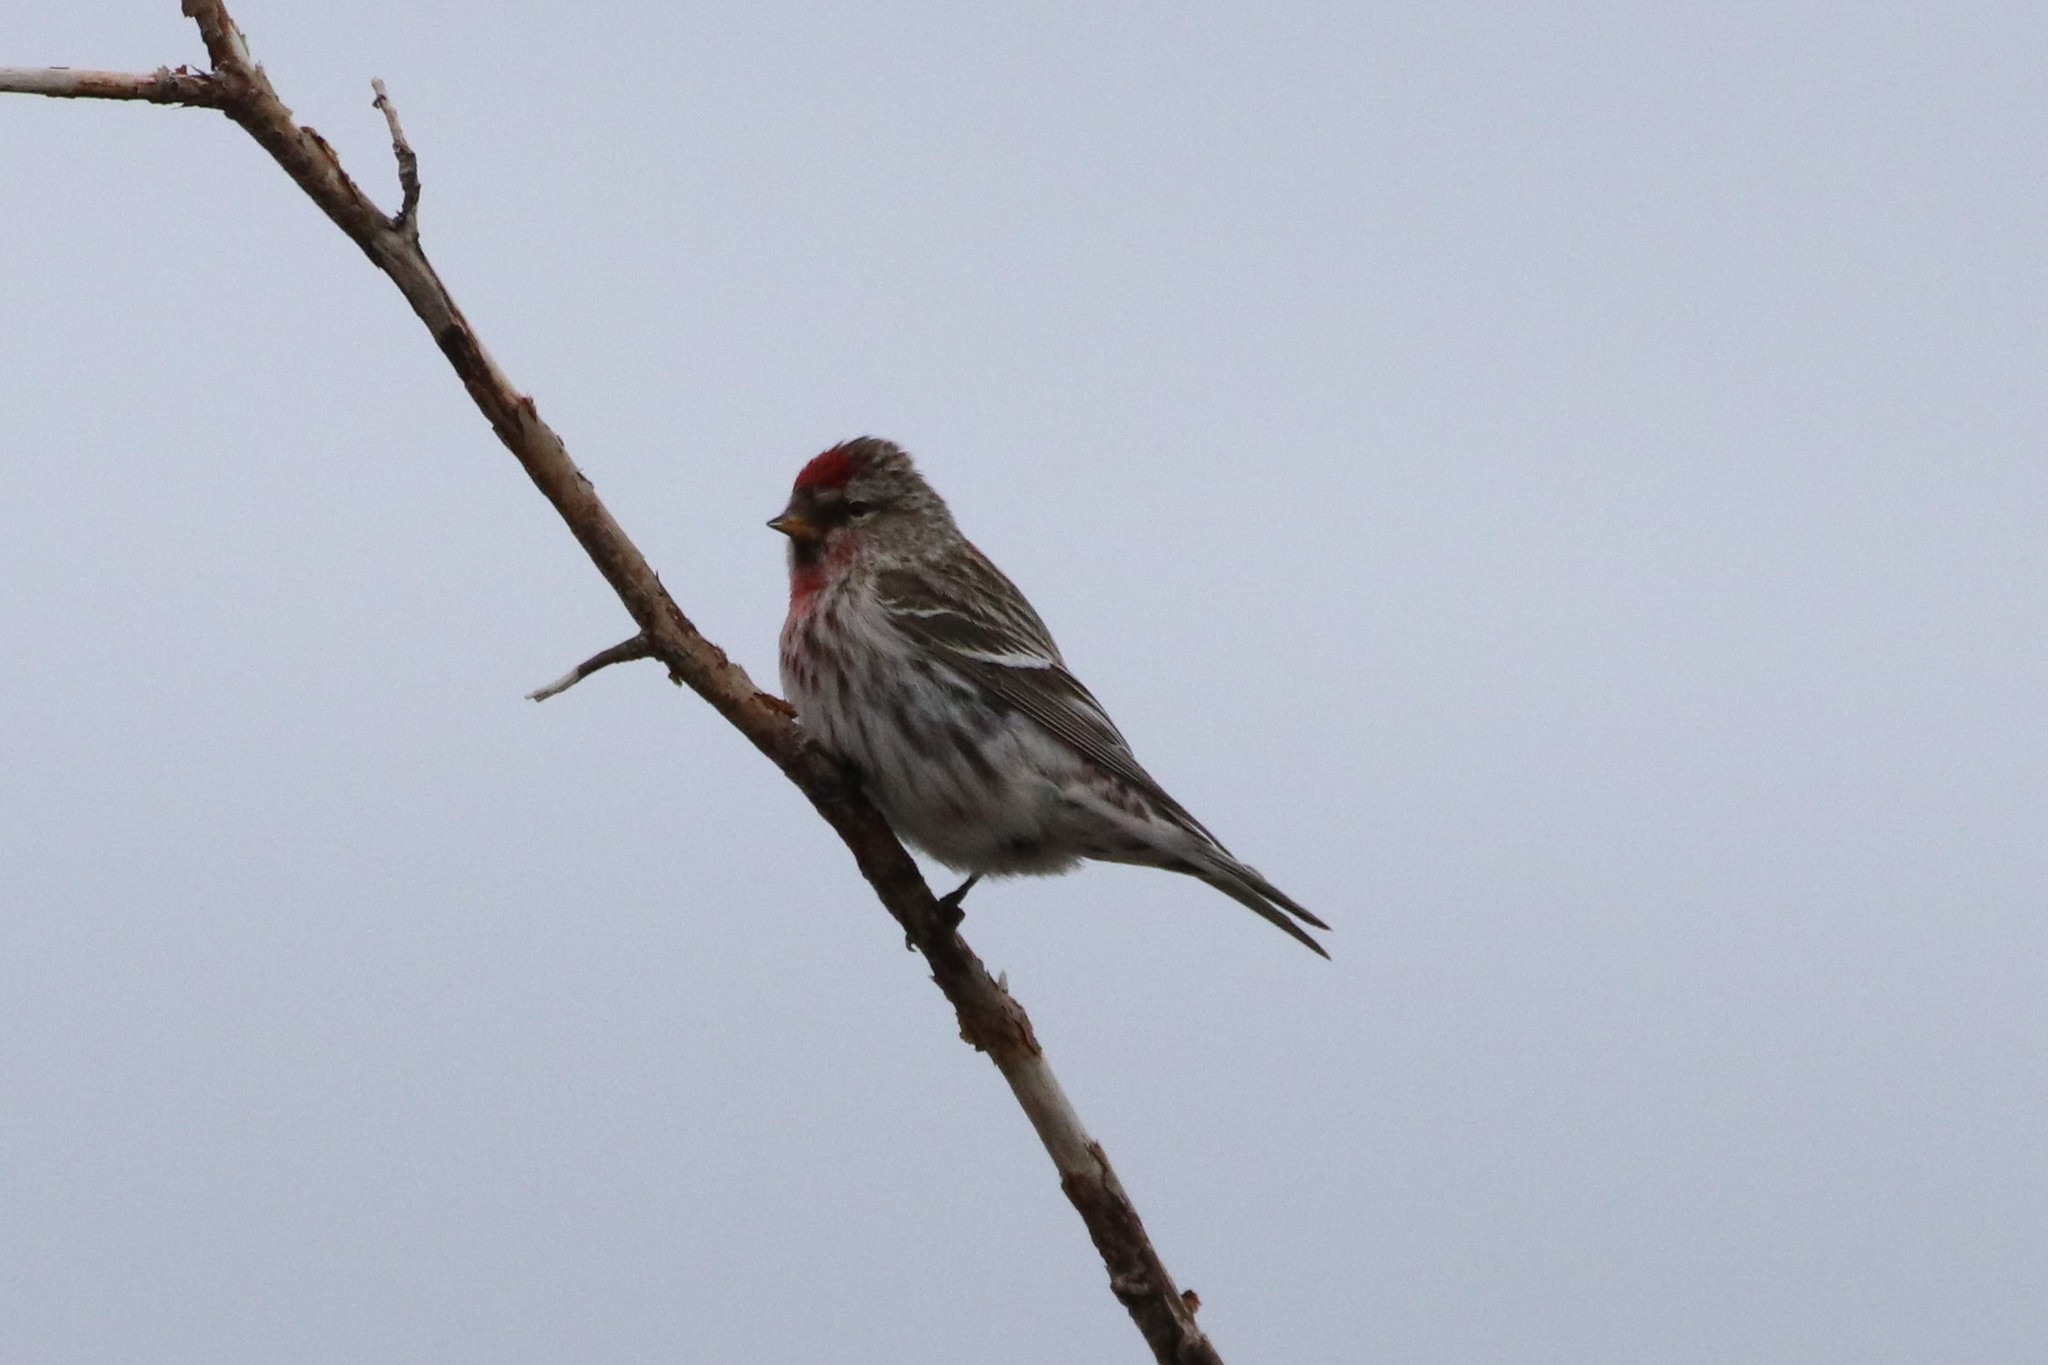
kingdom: Animalia
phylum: Chordata
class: Aves
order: Passeriformes
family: Fringillidae
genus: Acanthis
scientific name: Acanthis flammea
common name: Common redpoll
